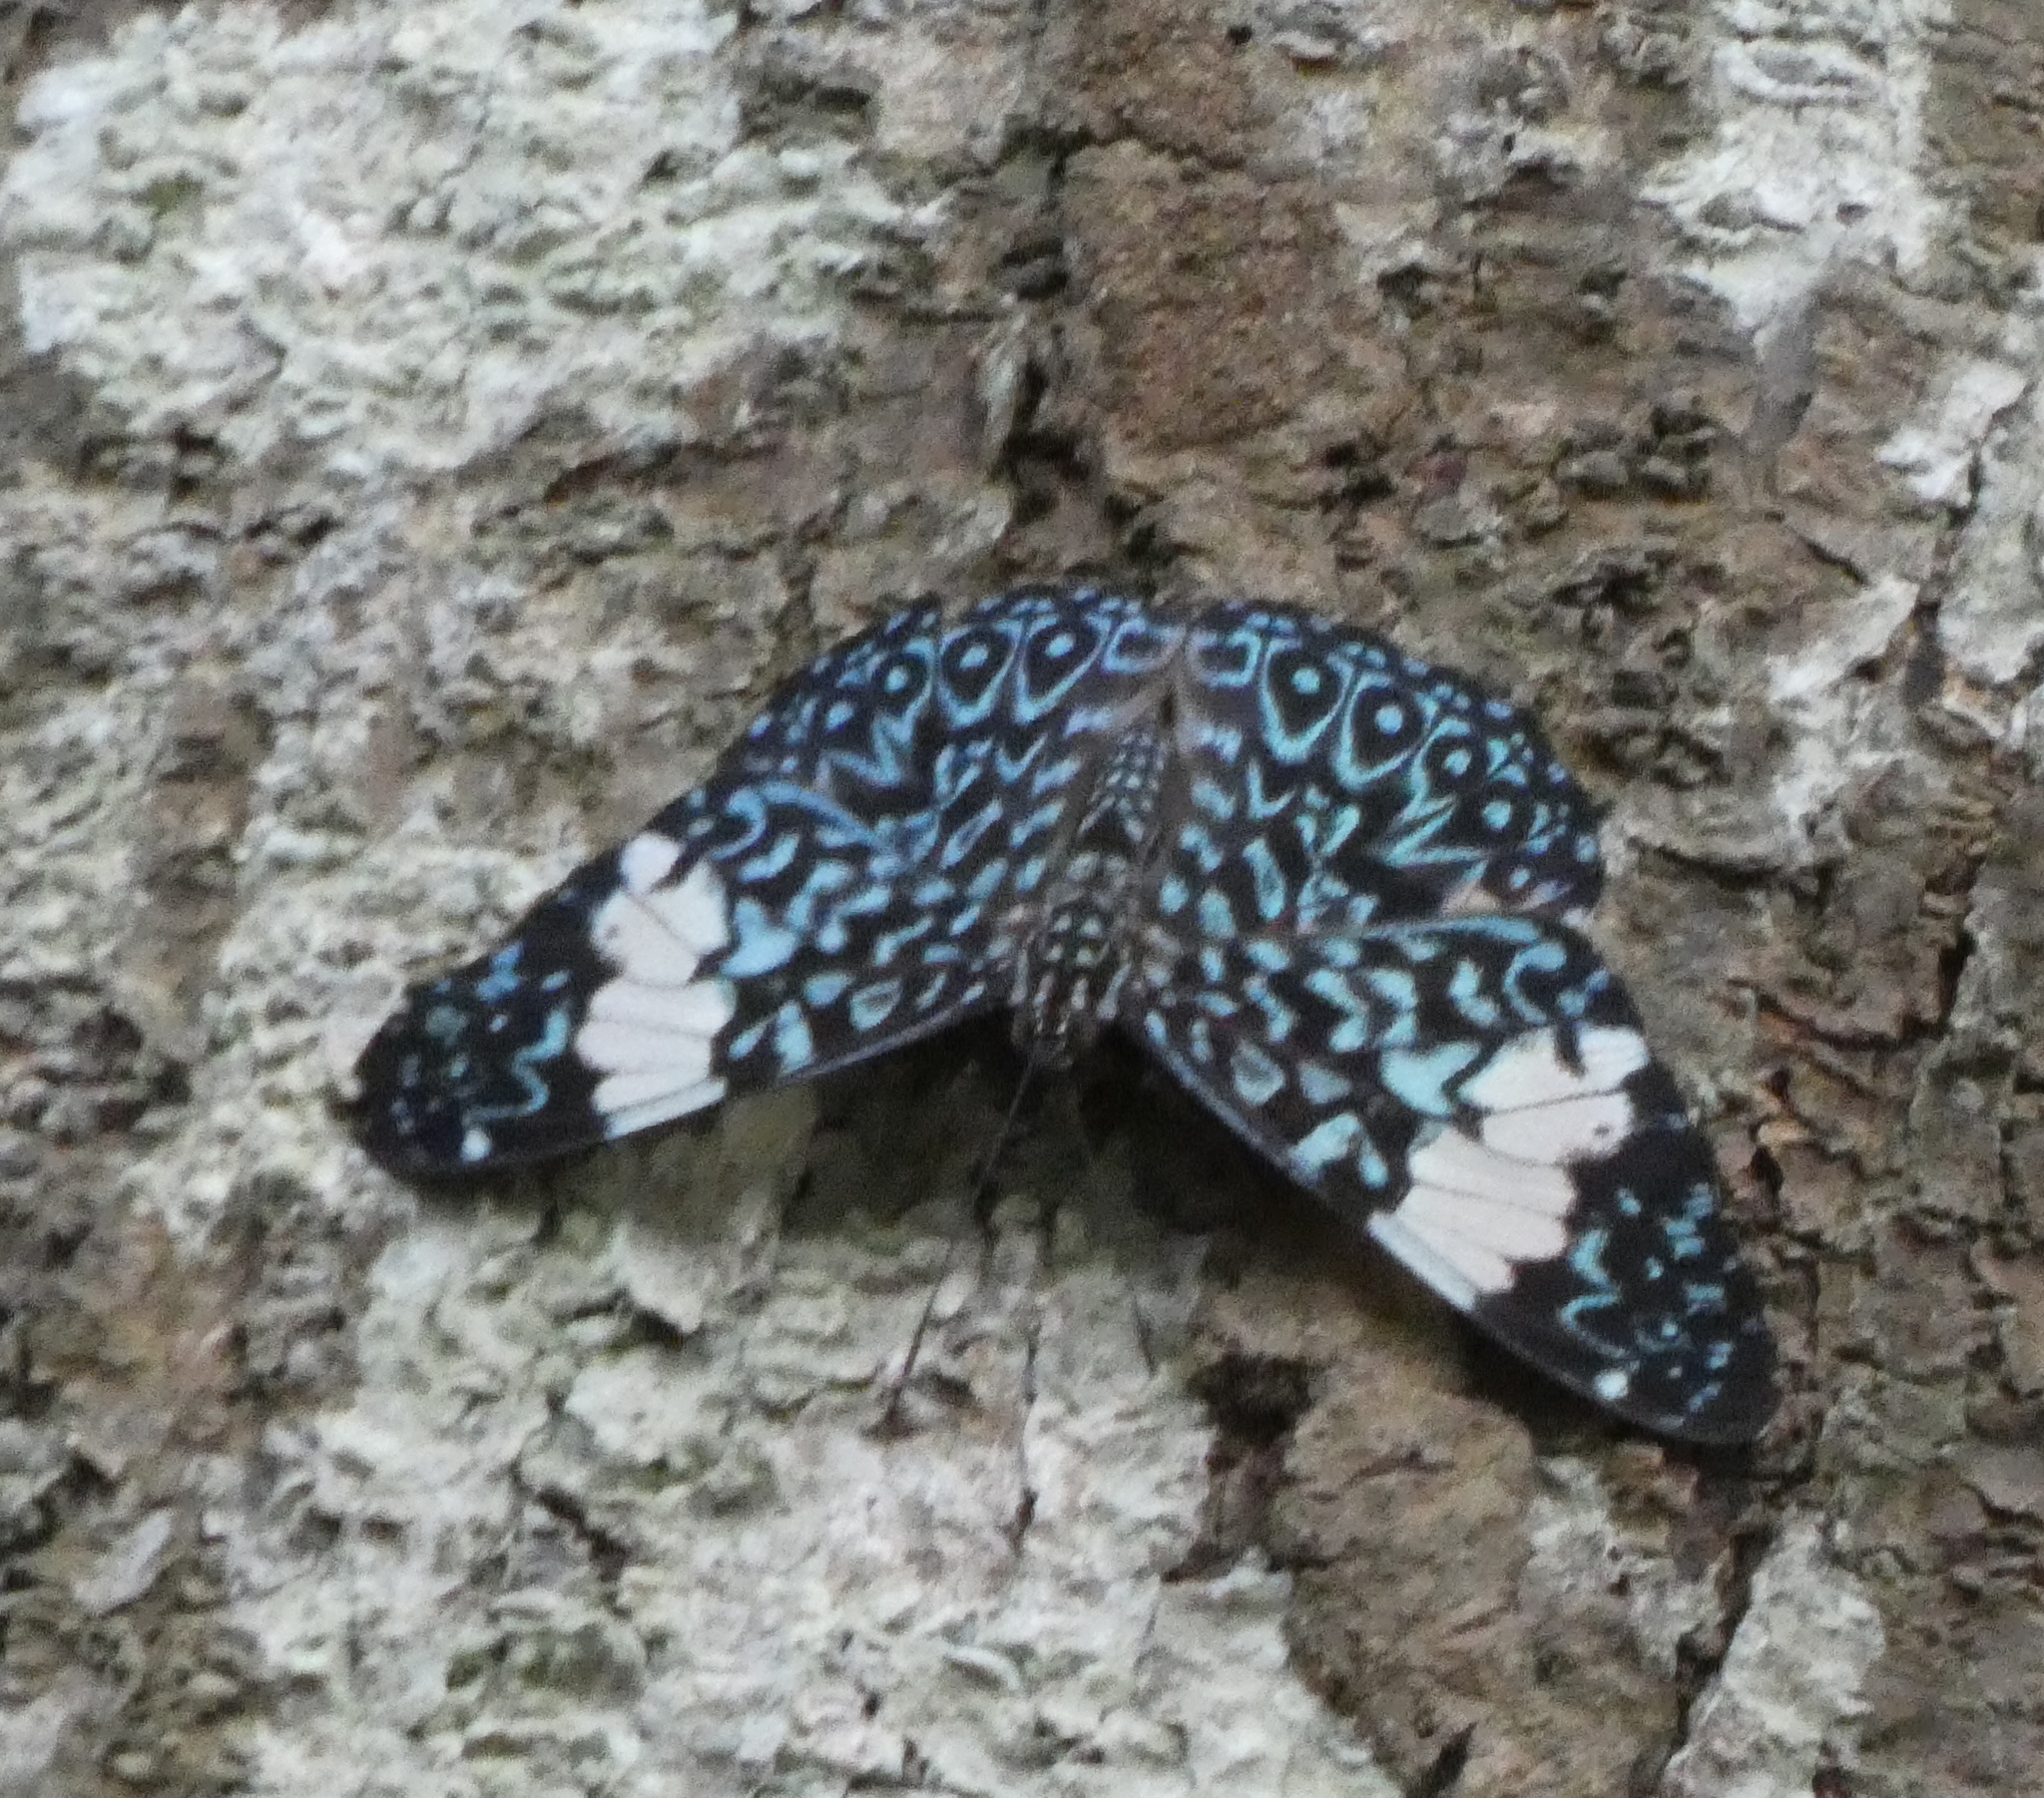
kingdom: Animalia
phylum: Arthropoda
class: Insecta
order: Lepidoptera
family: Nymphalidae
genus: Hamadryas
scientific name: Hamadryas amphinome
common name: Red cracker
